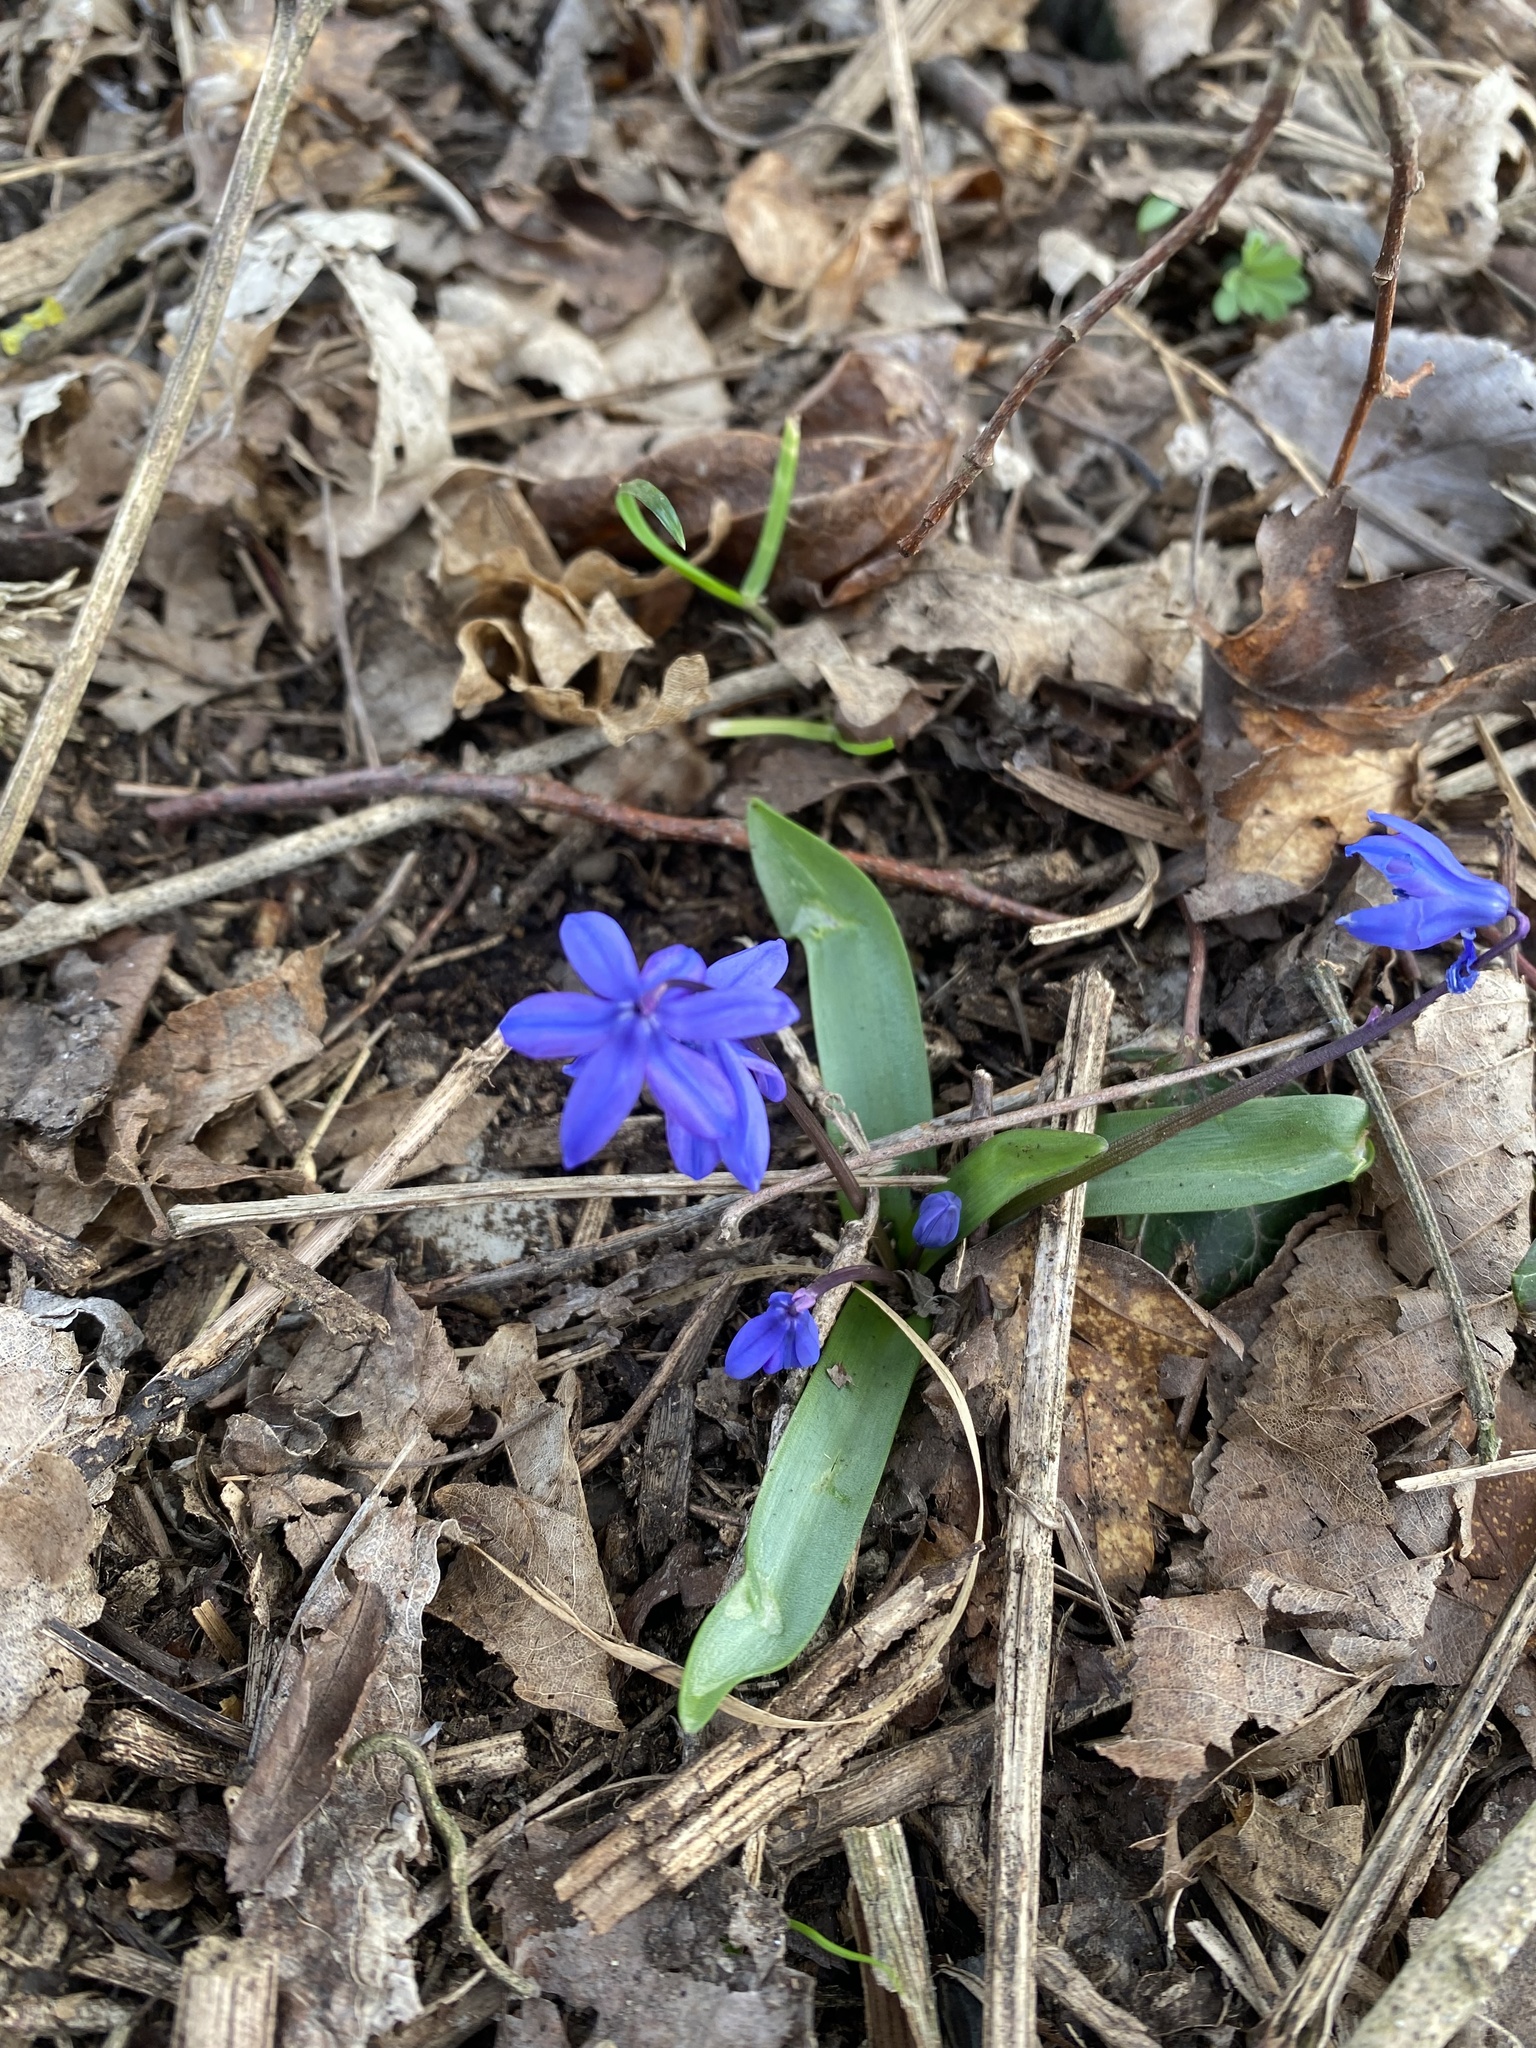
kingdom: Plantae
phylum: Tracheophyta
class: Liliopsida
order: Asparagales
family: Asparagaceae
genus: Scilla
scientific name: Scilla siberica
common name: Siberian squill
